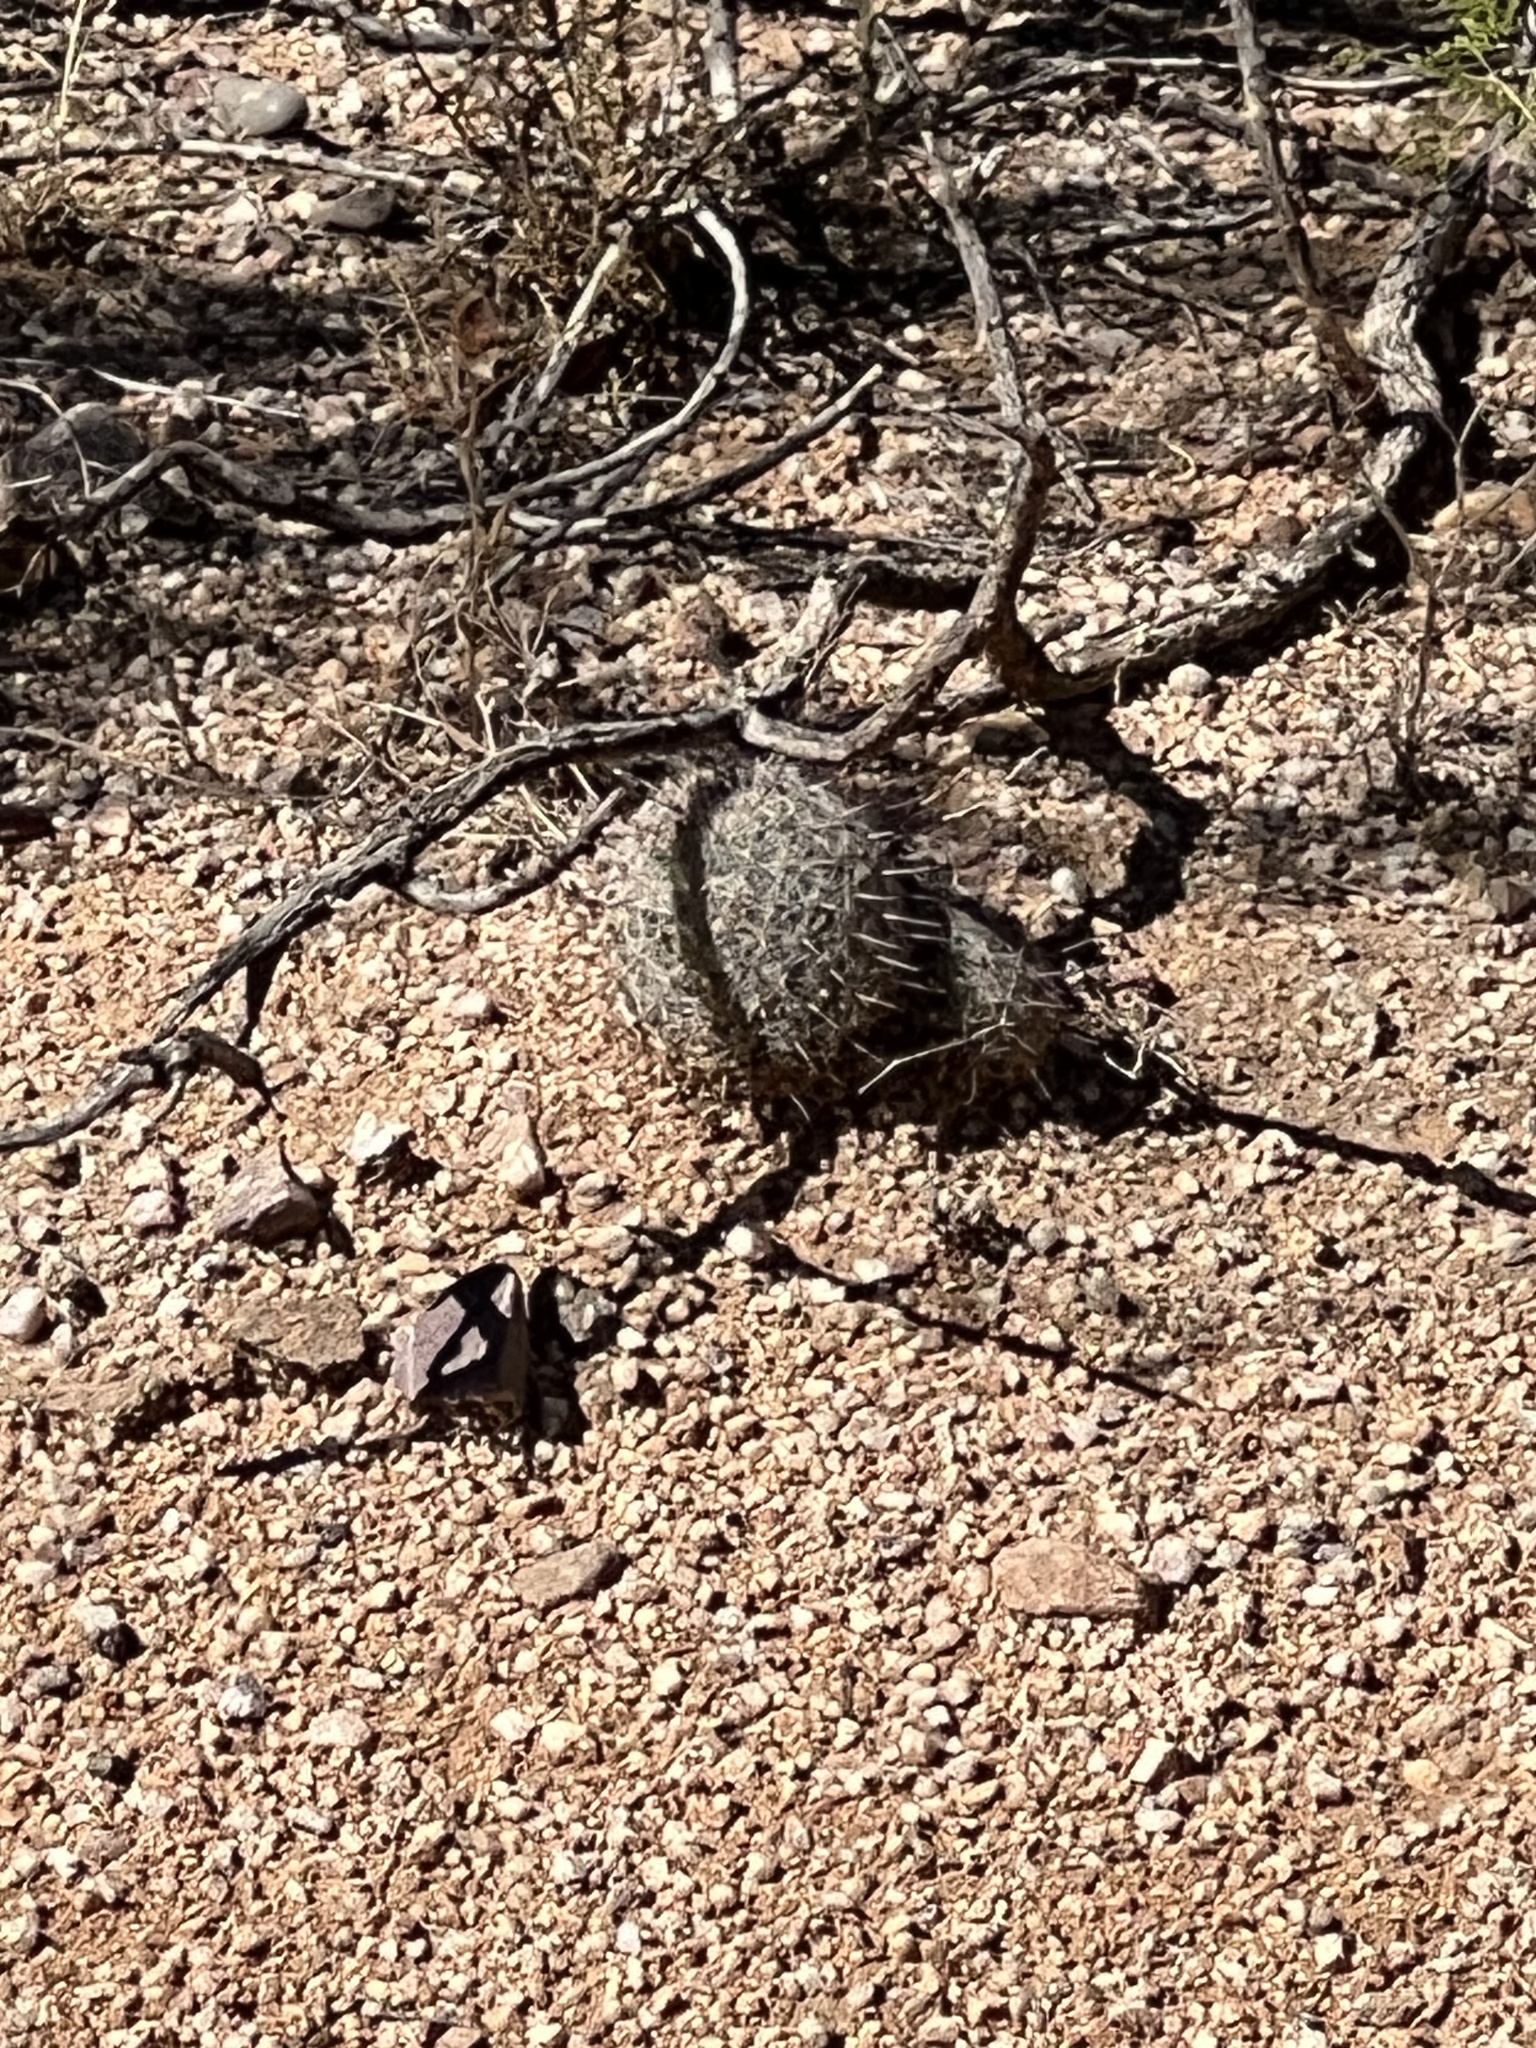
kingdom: Plantae
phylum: Tracheophyta
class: Magnoliopsida
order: Caryophyllales
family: Cactaceae
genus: Cochemiea
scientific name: Cochemiea grahamii
